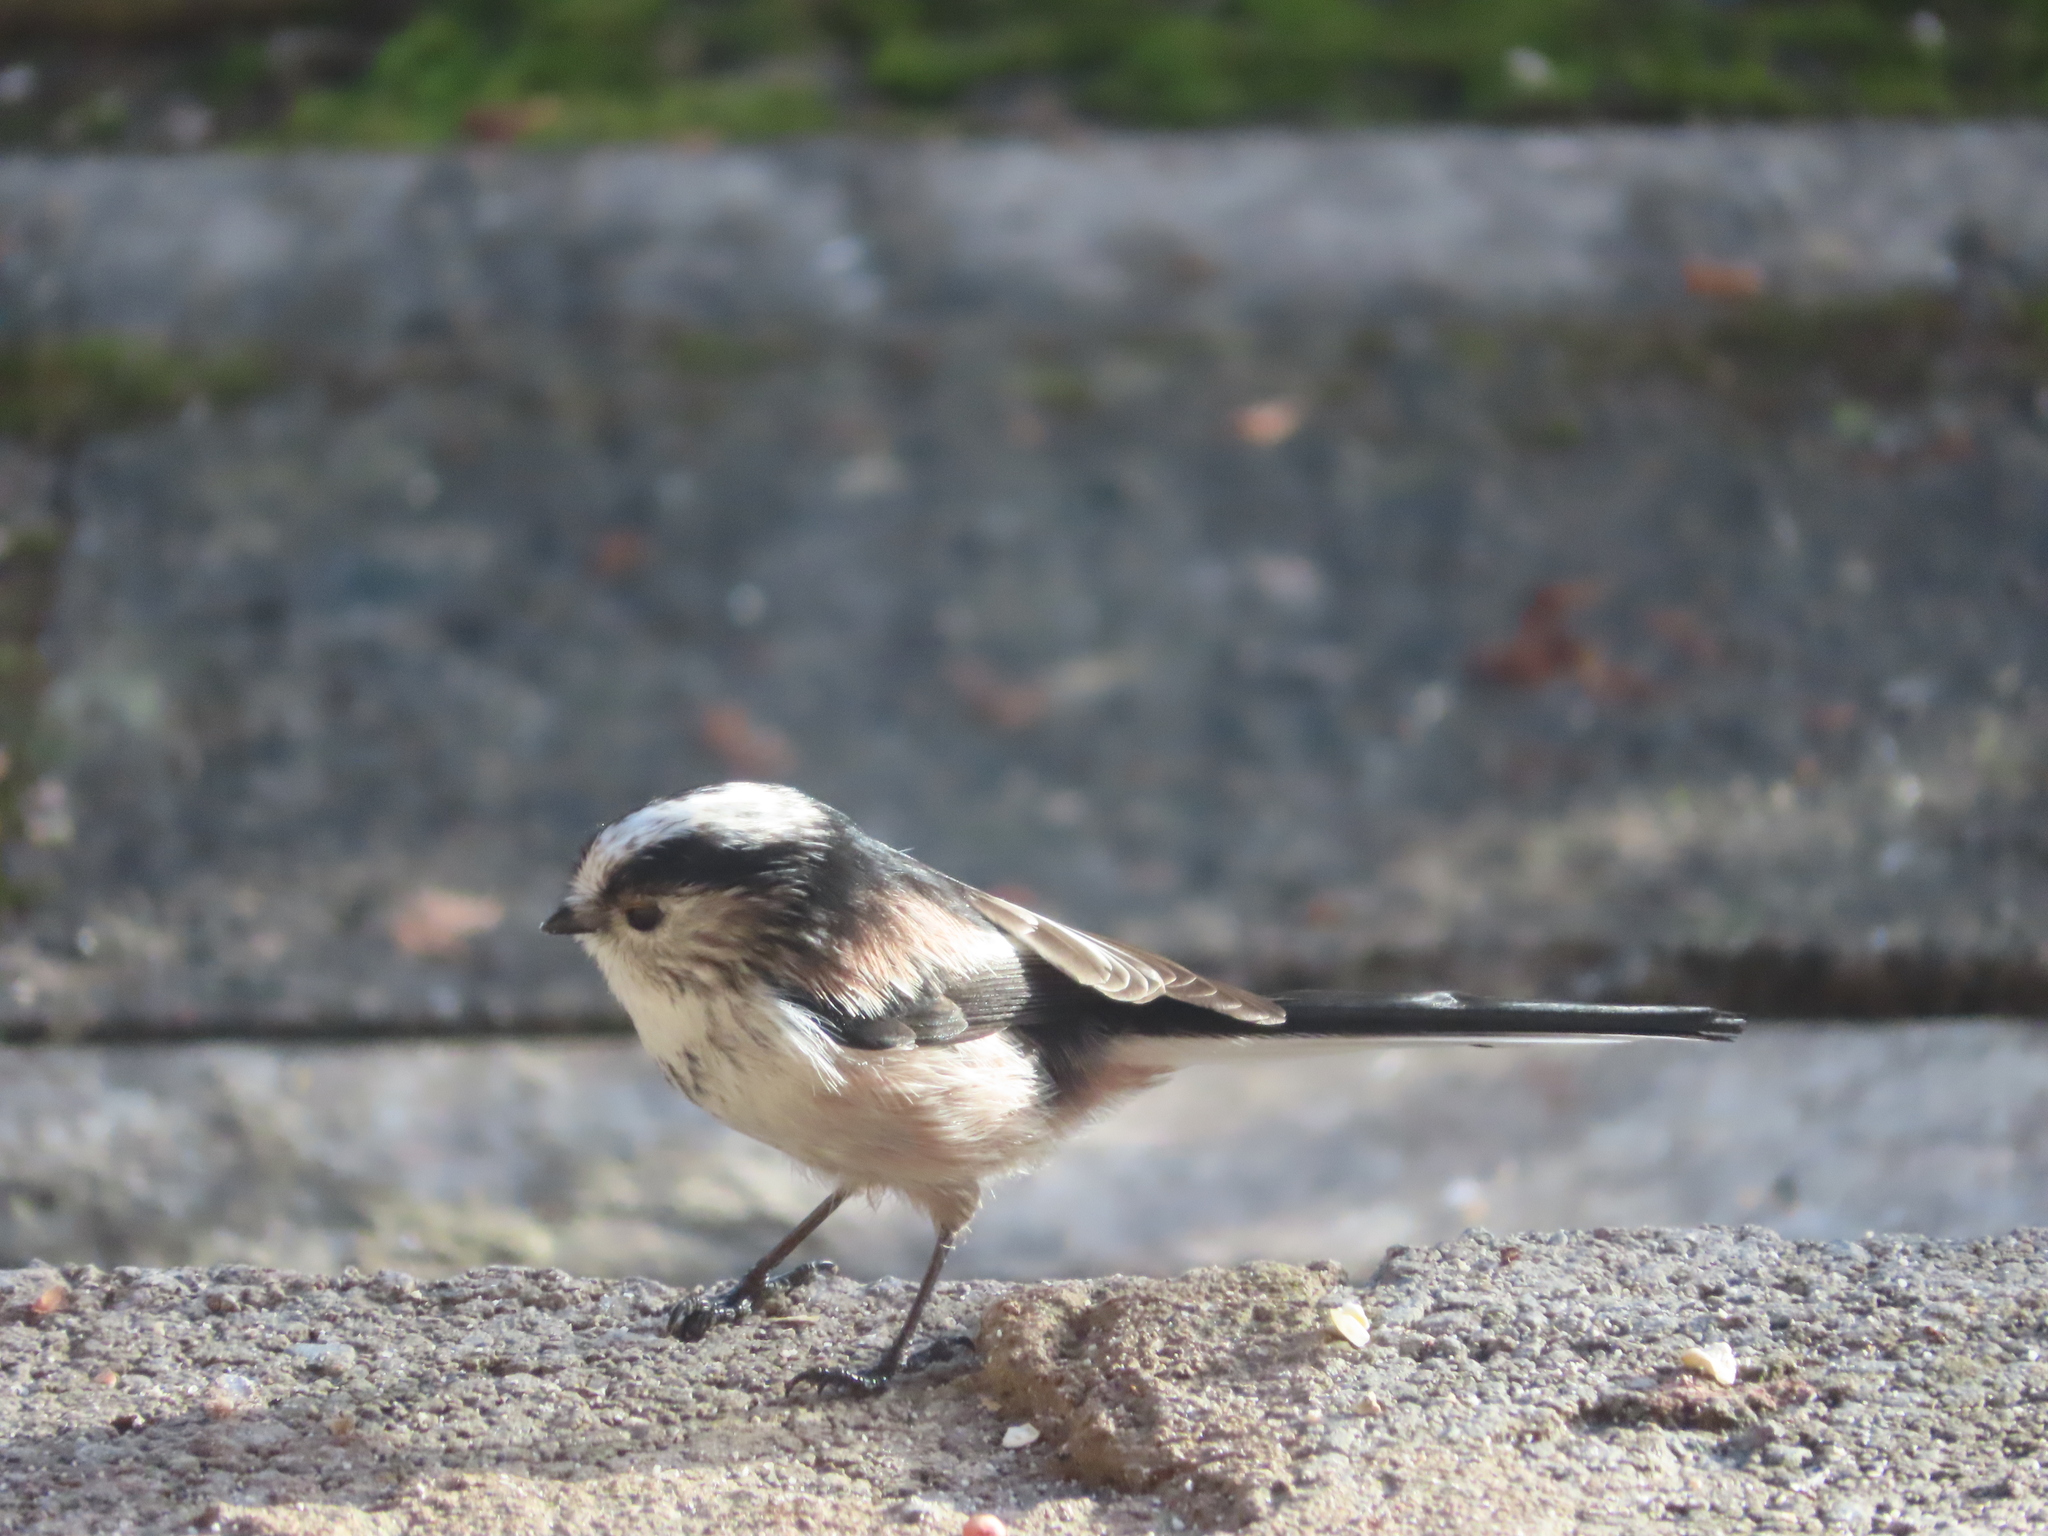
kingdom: Animalia
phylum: Chordata
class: Aves
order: Passeriformes
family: Aegithalidae
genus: Aegithalos
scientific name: Aegithalos caudatus
